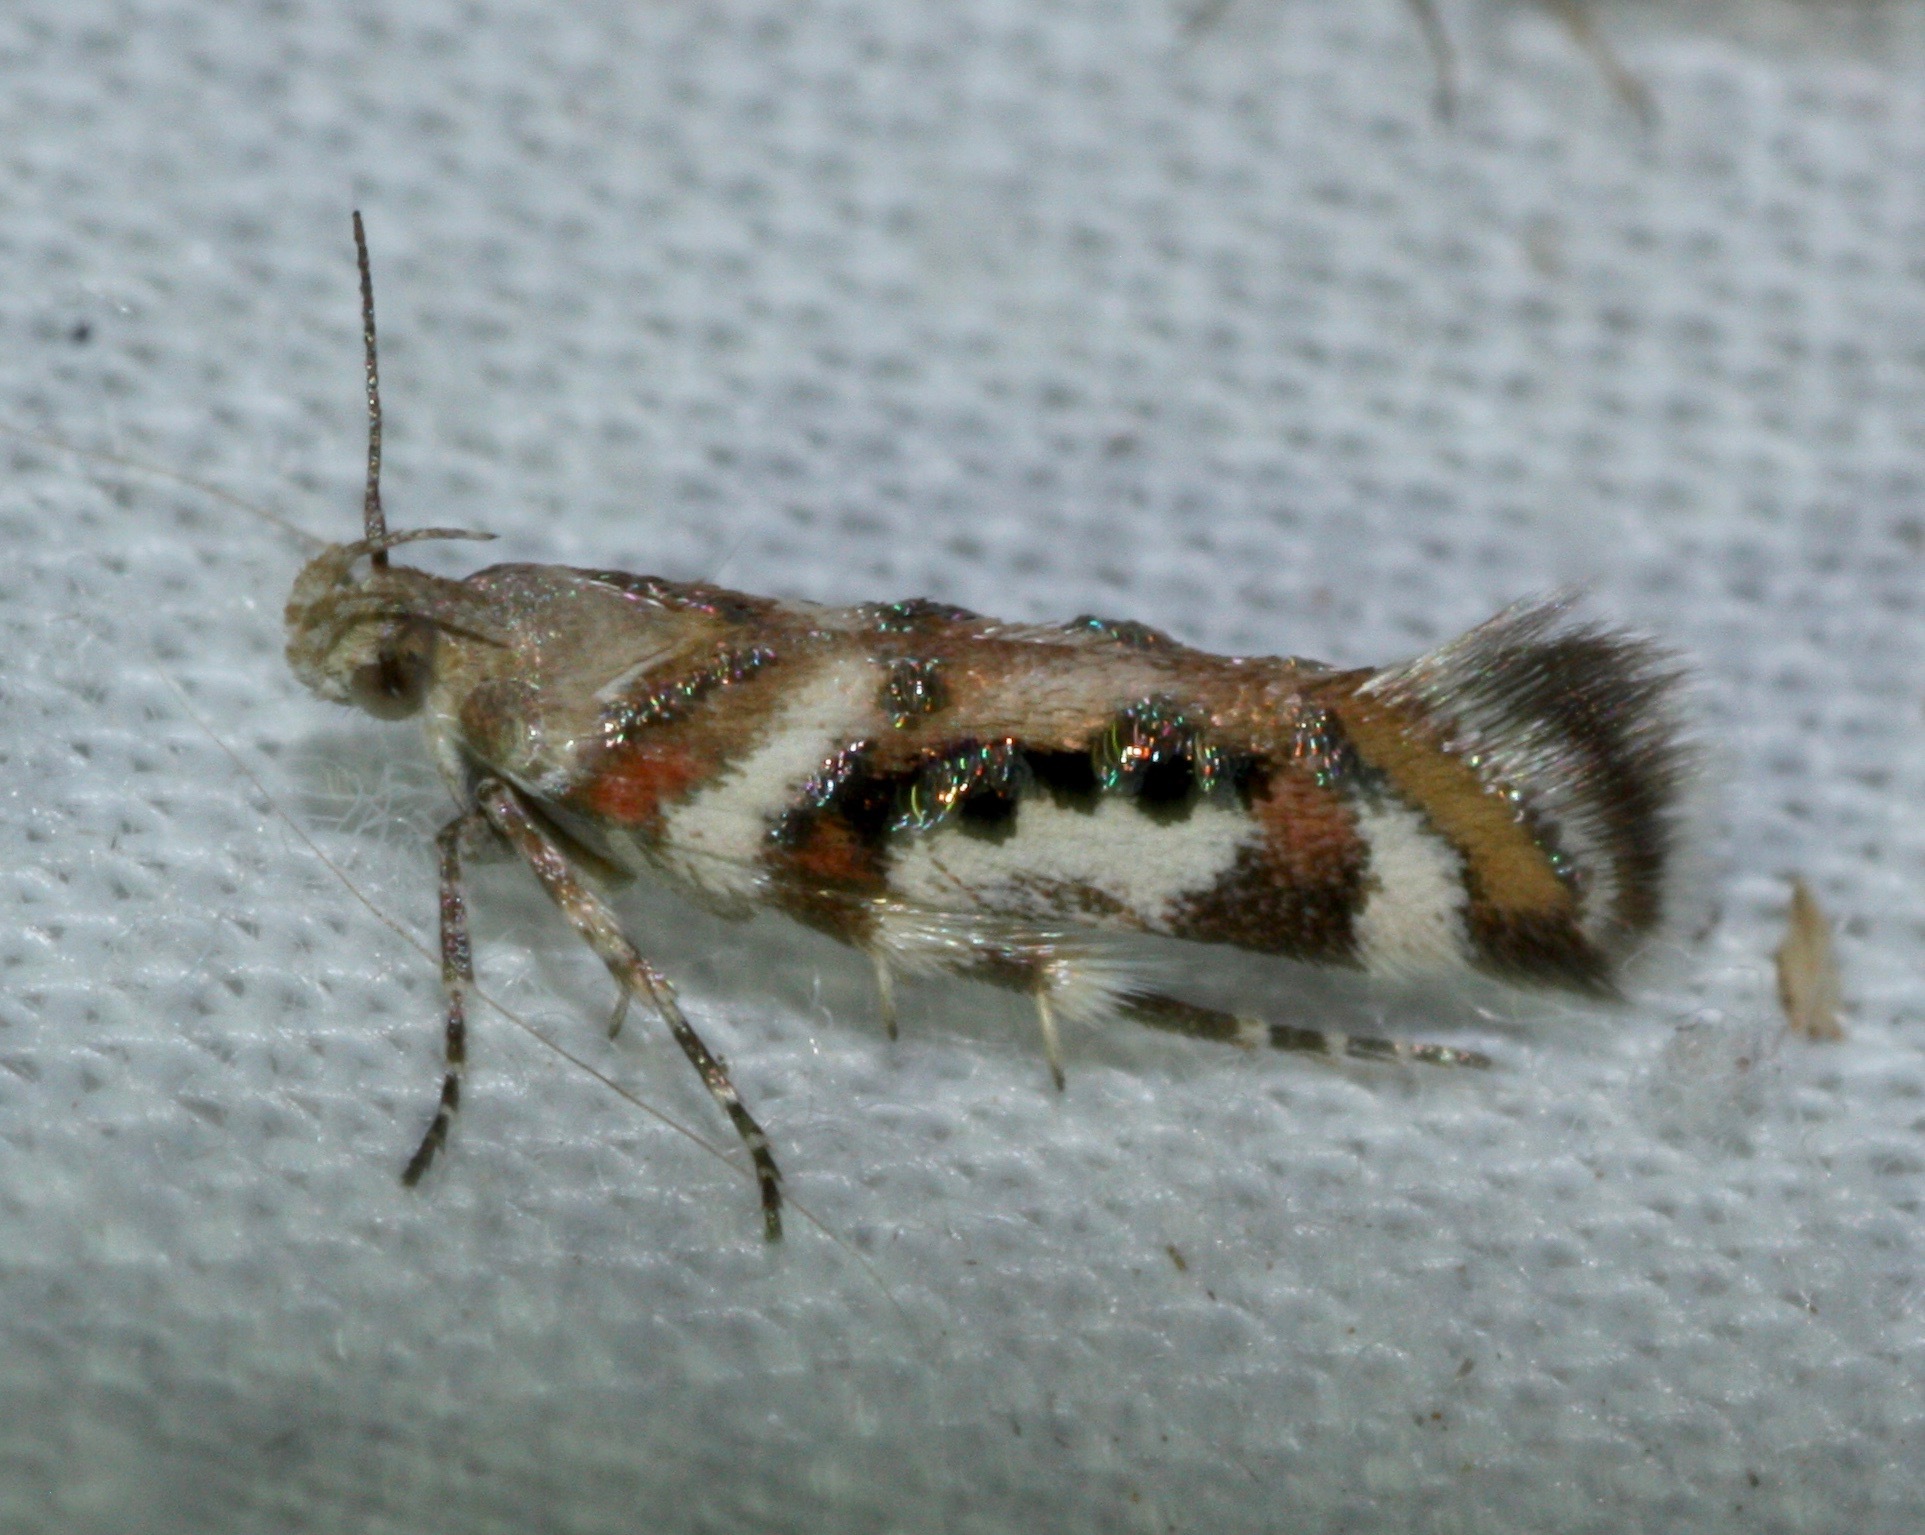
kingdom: Animalia
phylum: Arthropoda
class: Insecta
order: Lepidoptera
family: Gelechiidae
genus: Aristotelia
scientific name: Aristotelia elegantella
